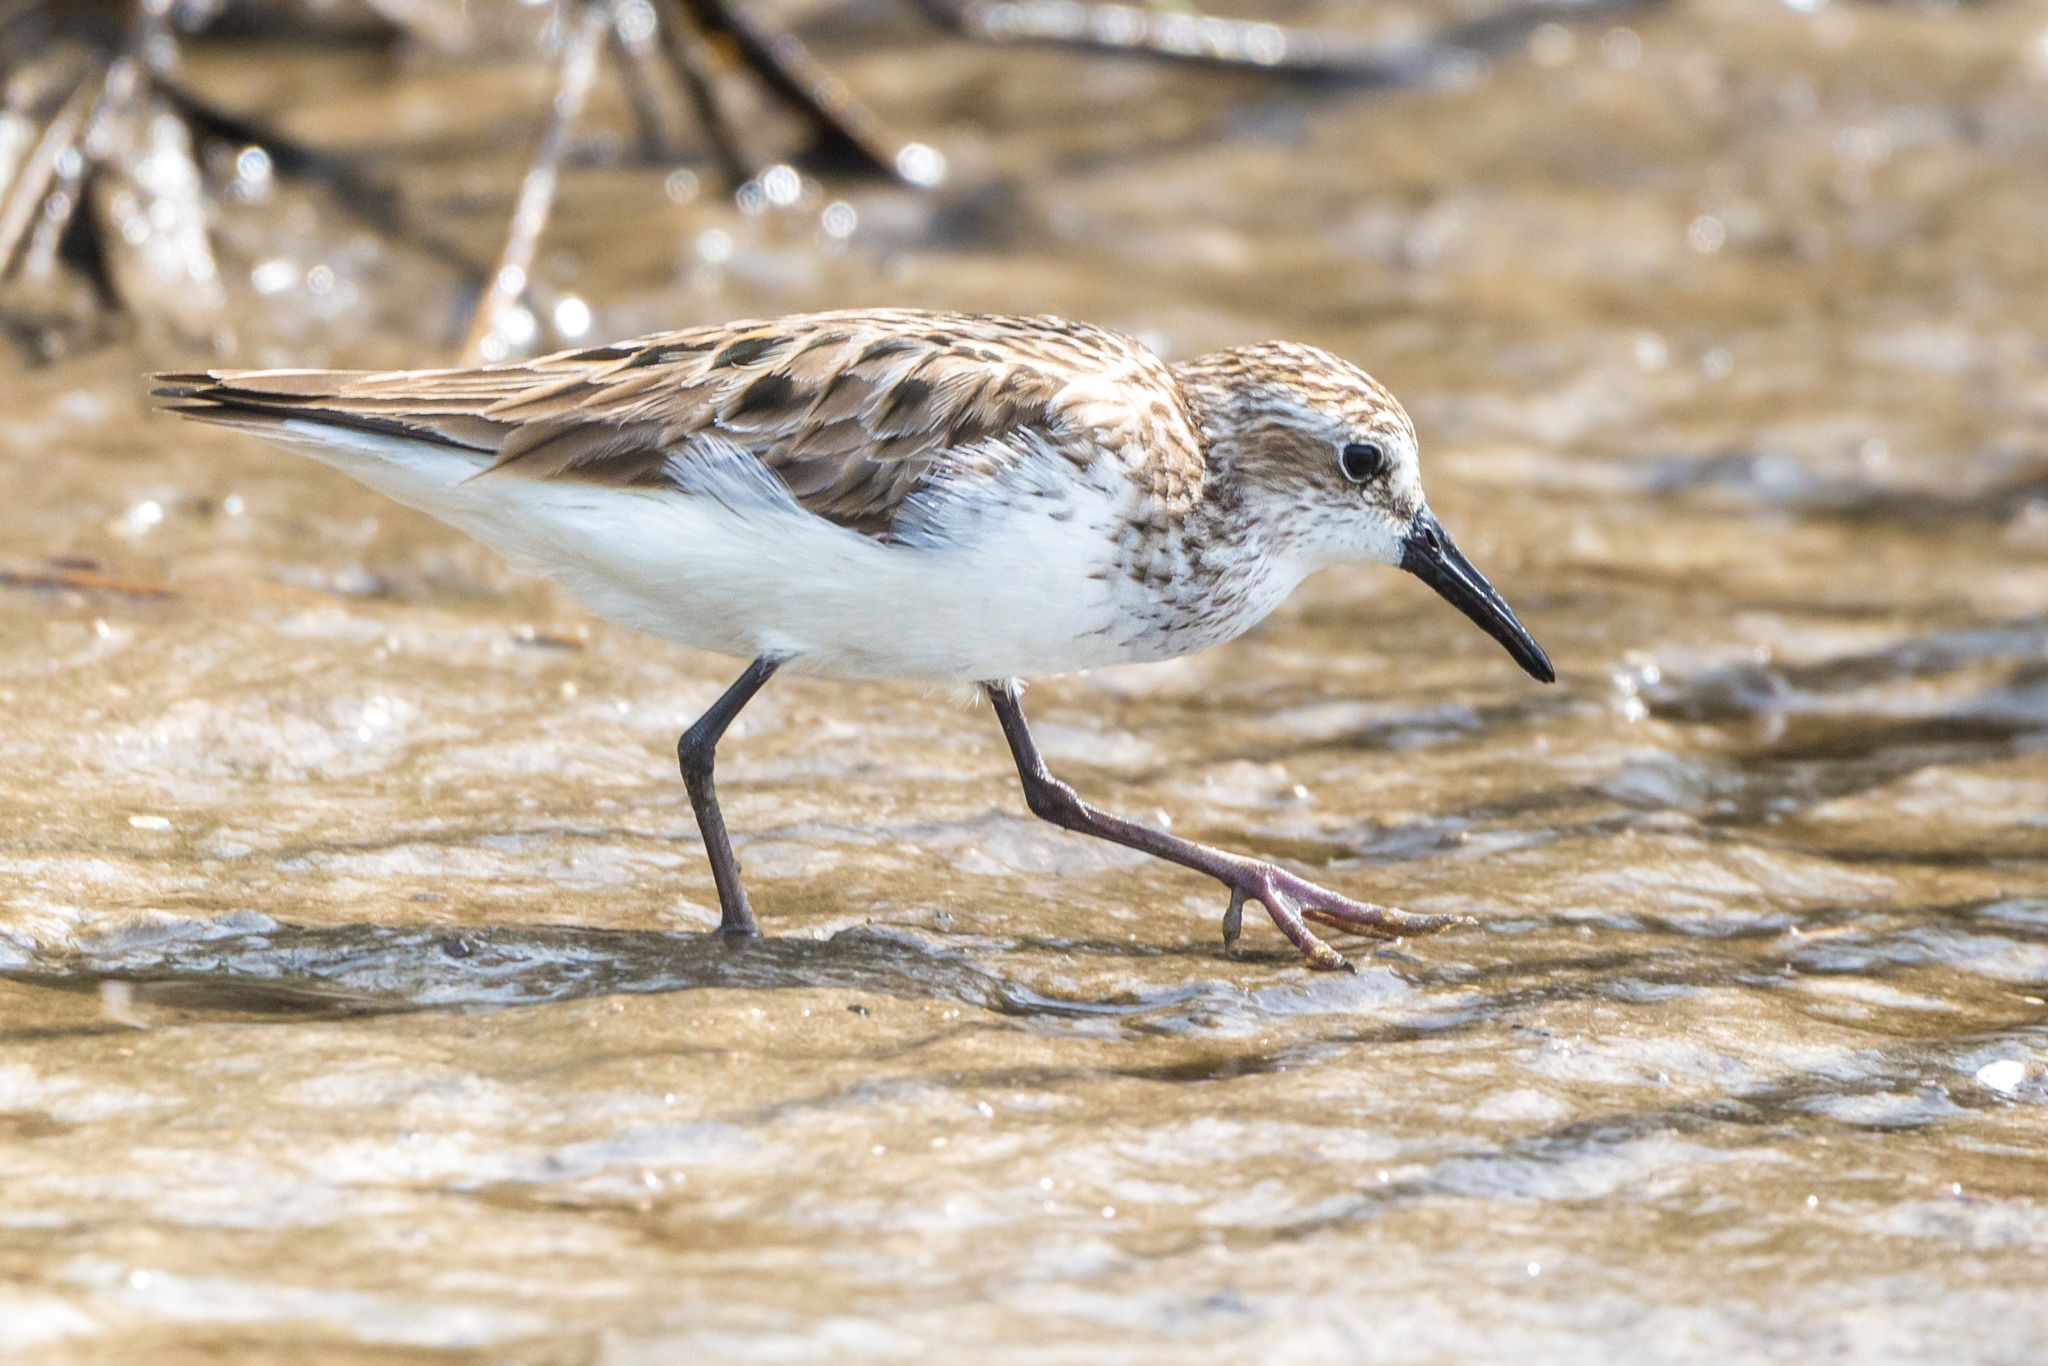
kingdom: Animalia
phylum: Chordata
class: Aves
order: Charadriiformes
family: Scolopacidae
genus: Calidris
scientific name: Calidris pusilla
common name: Semipalmated sandpiper
